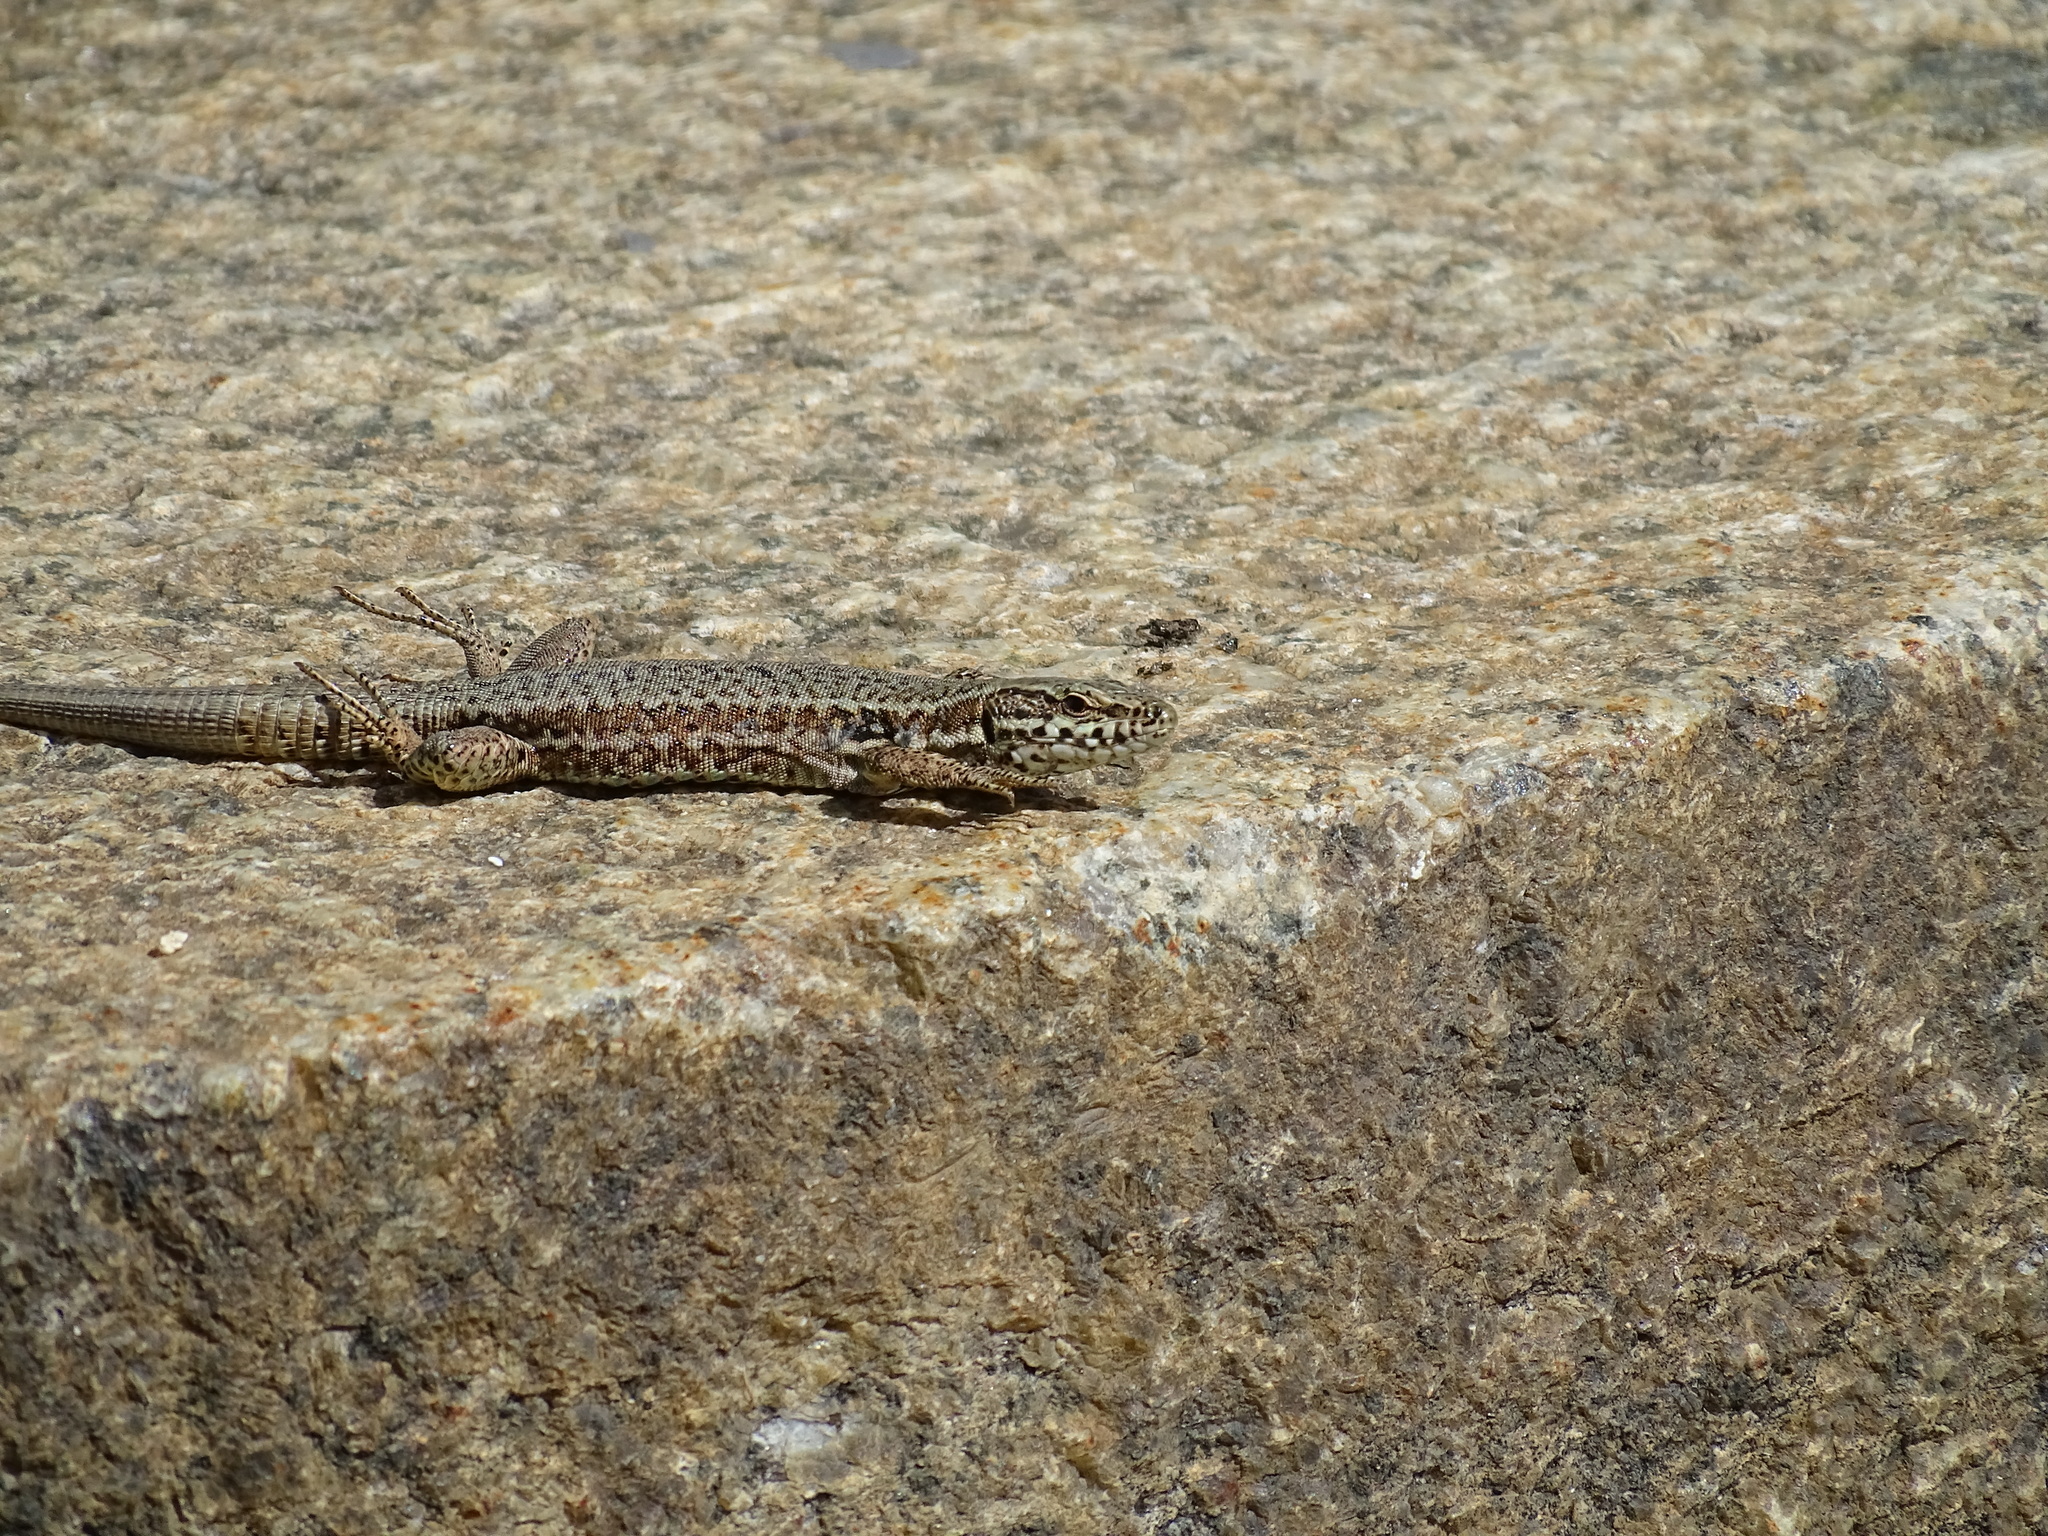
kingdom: Animalia
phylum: Chordata
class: Squamata
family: Lacertidae
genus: Podarcis
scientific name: Podarcis muralis
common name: Common wall lizard
